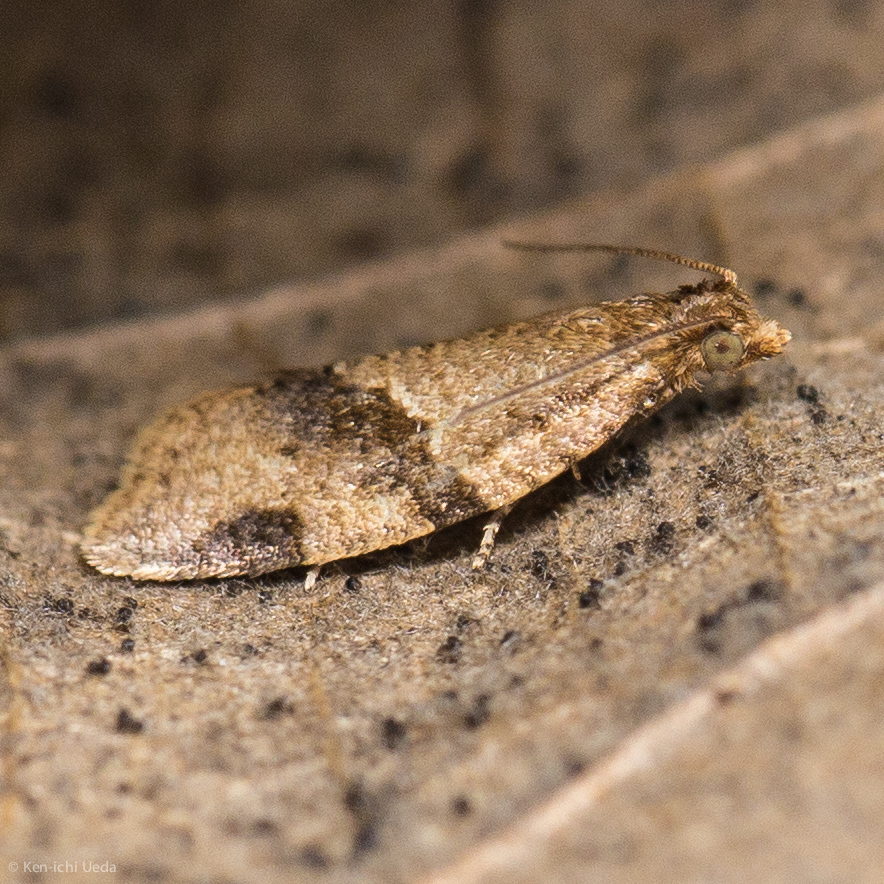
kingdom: Animalia
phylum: Arthropoda
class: Insecta
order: Lepidoptera
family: Tortricidae
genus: Clepsis
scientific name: Clepsis peritana
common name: Garden tortrix
